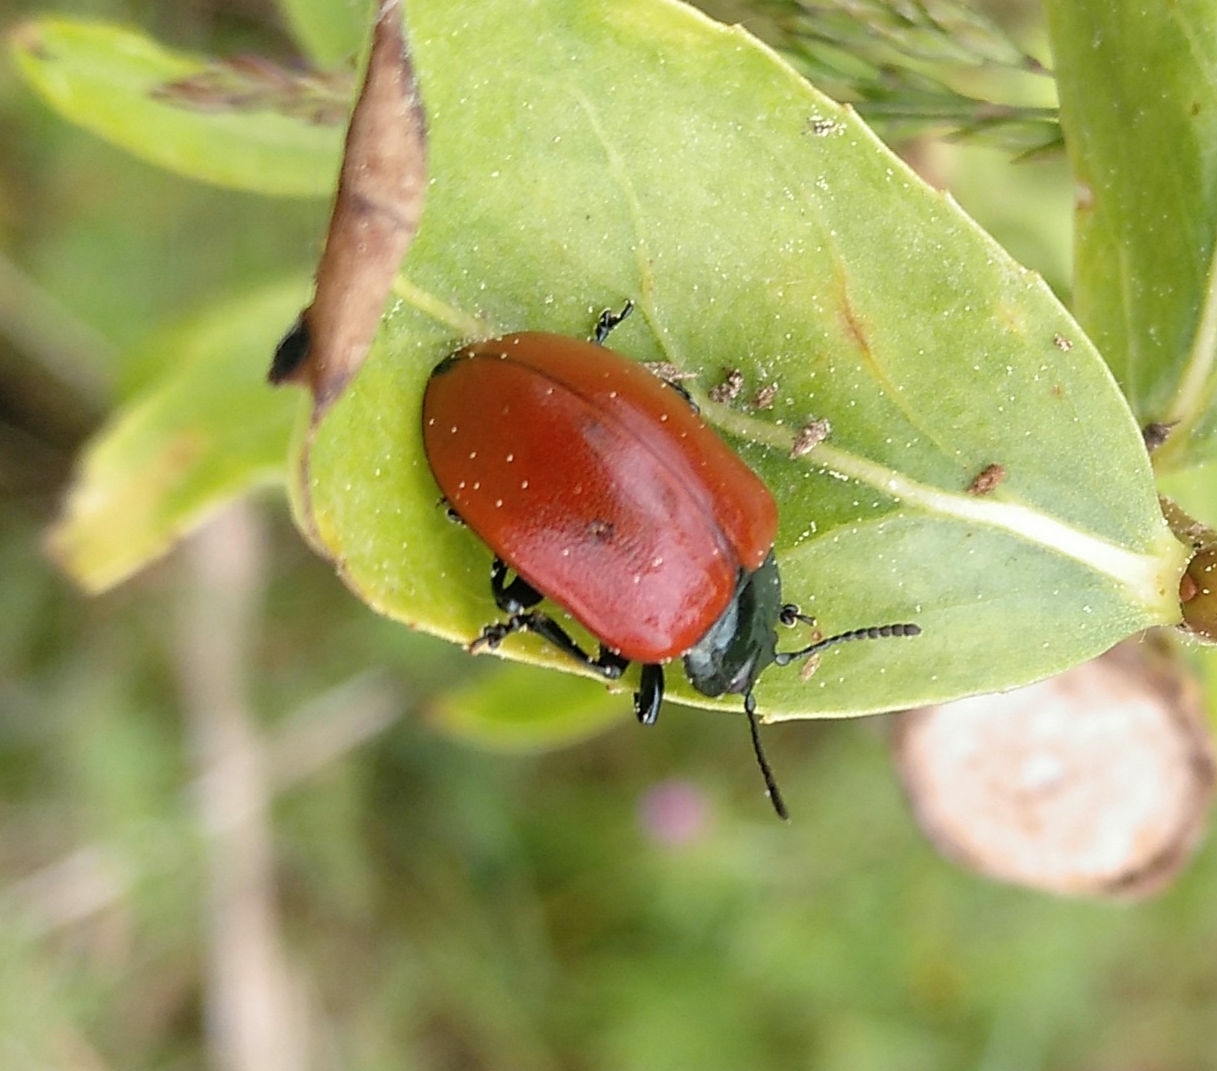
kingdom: Animalia
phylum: Arthropoda
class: Insecta
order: Coleoptera
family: Chrysomelidae
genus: Chrysomela
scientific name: Chrysomela populi
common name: Red poplar leaf beetle
